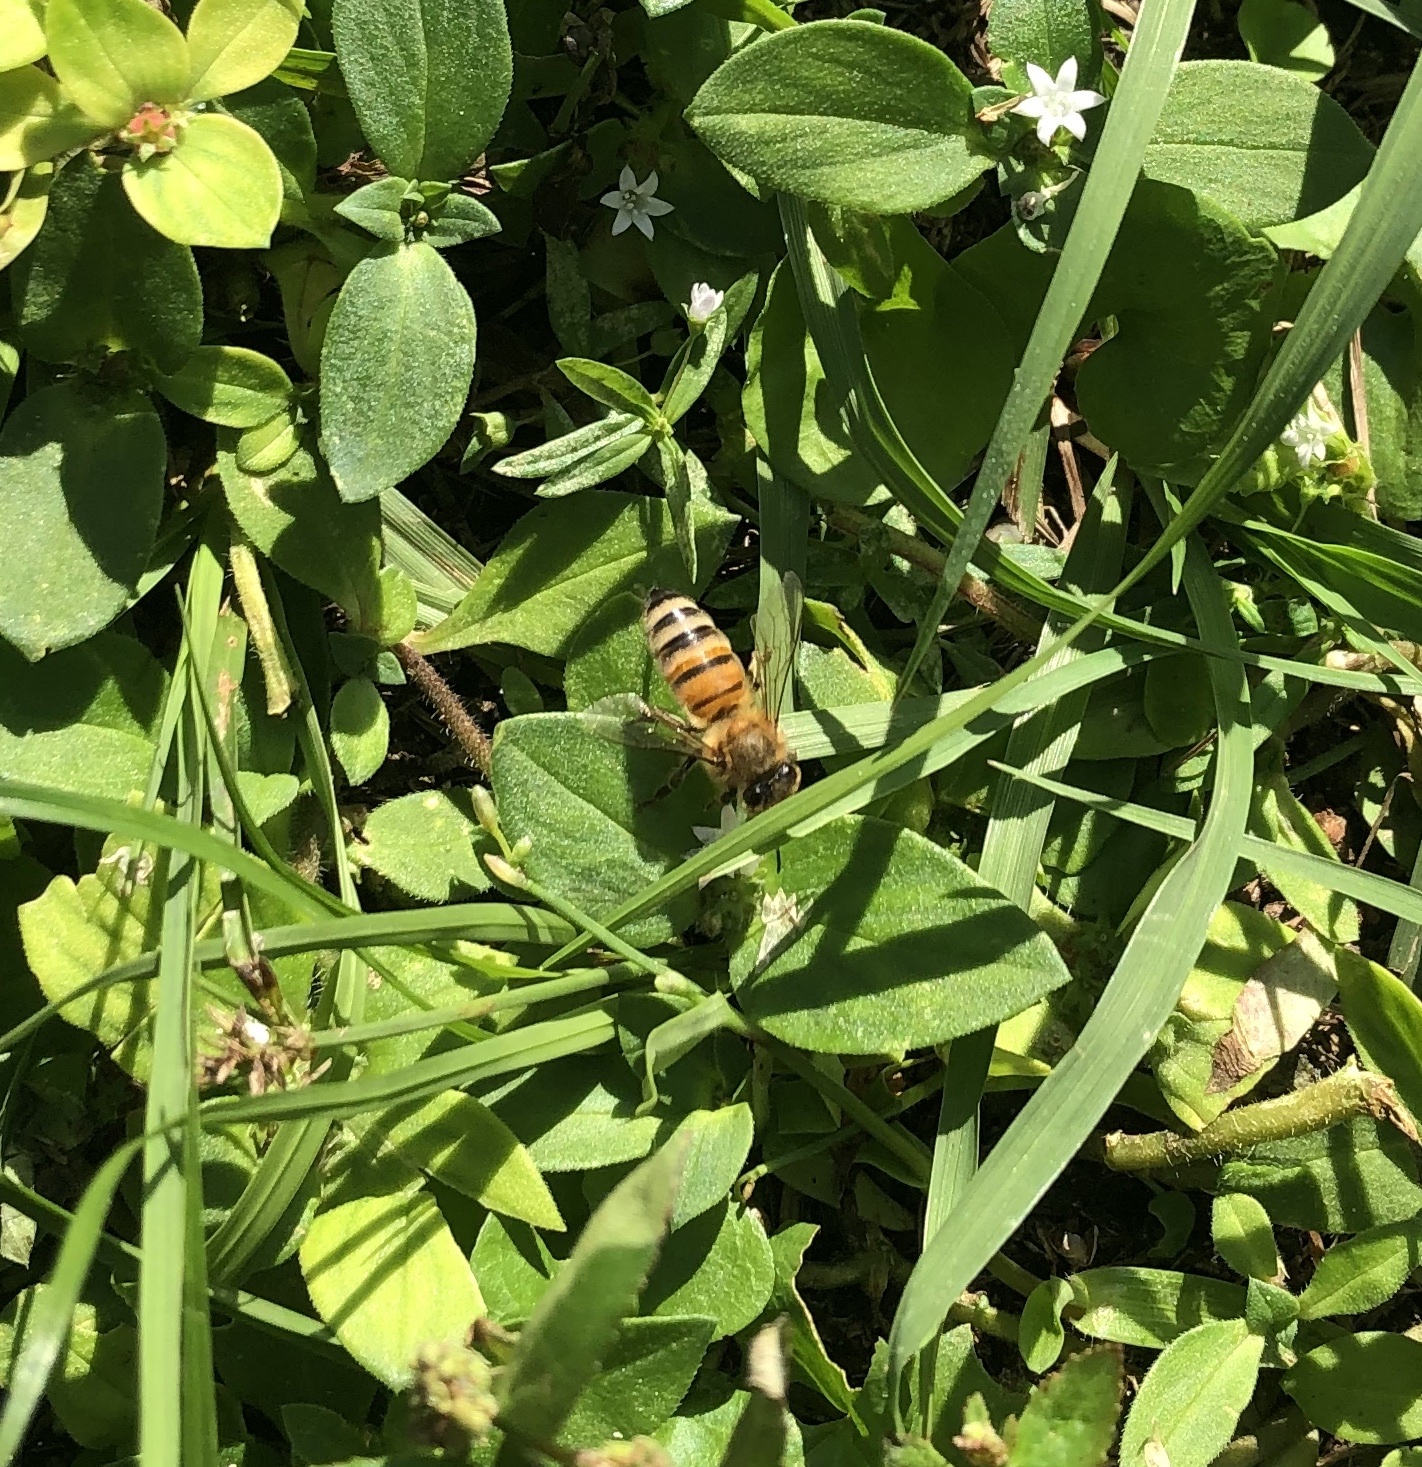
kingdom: Animalia
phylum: Arthropoda
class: Insecta
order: Hymenoptera
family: Apidae
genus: Apis
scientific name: Apis mellifera
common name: Honey bee
